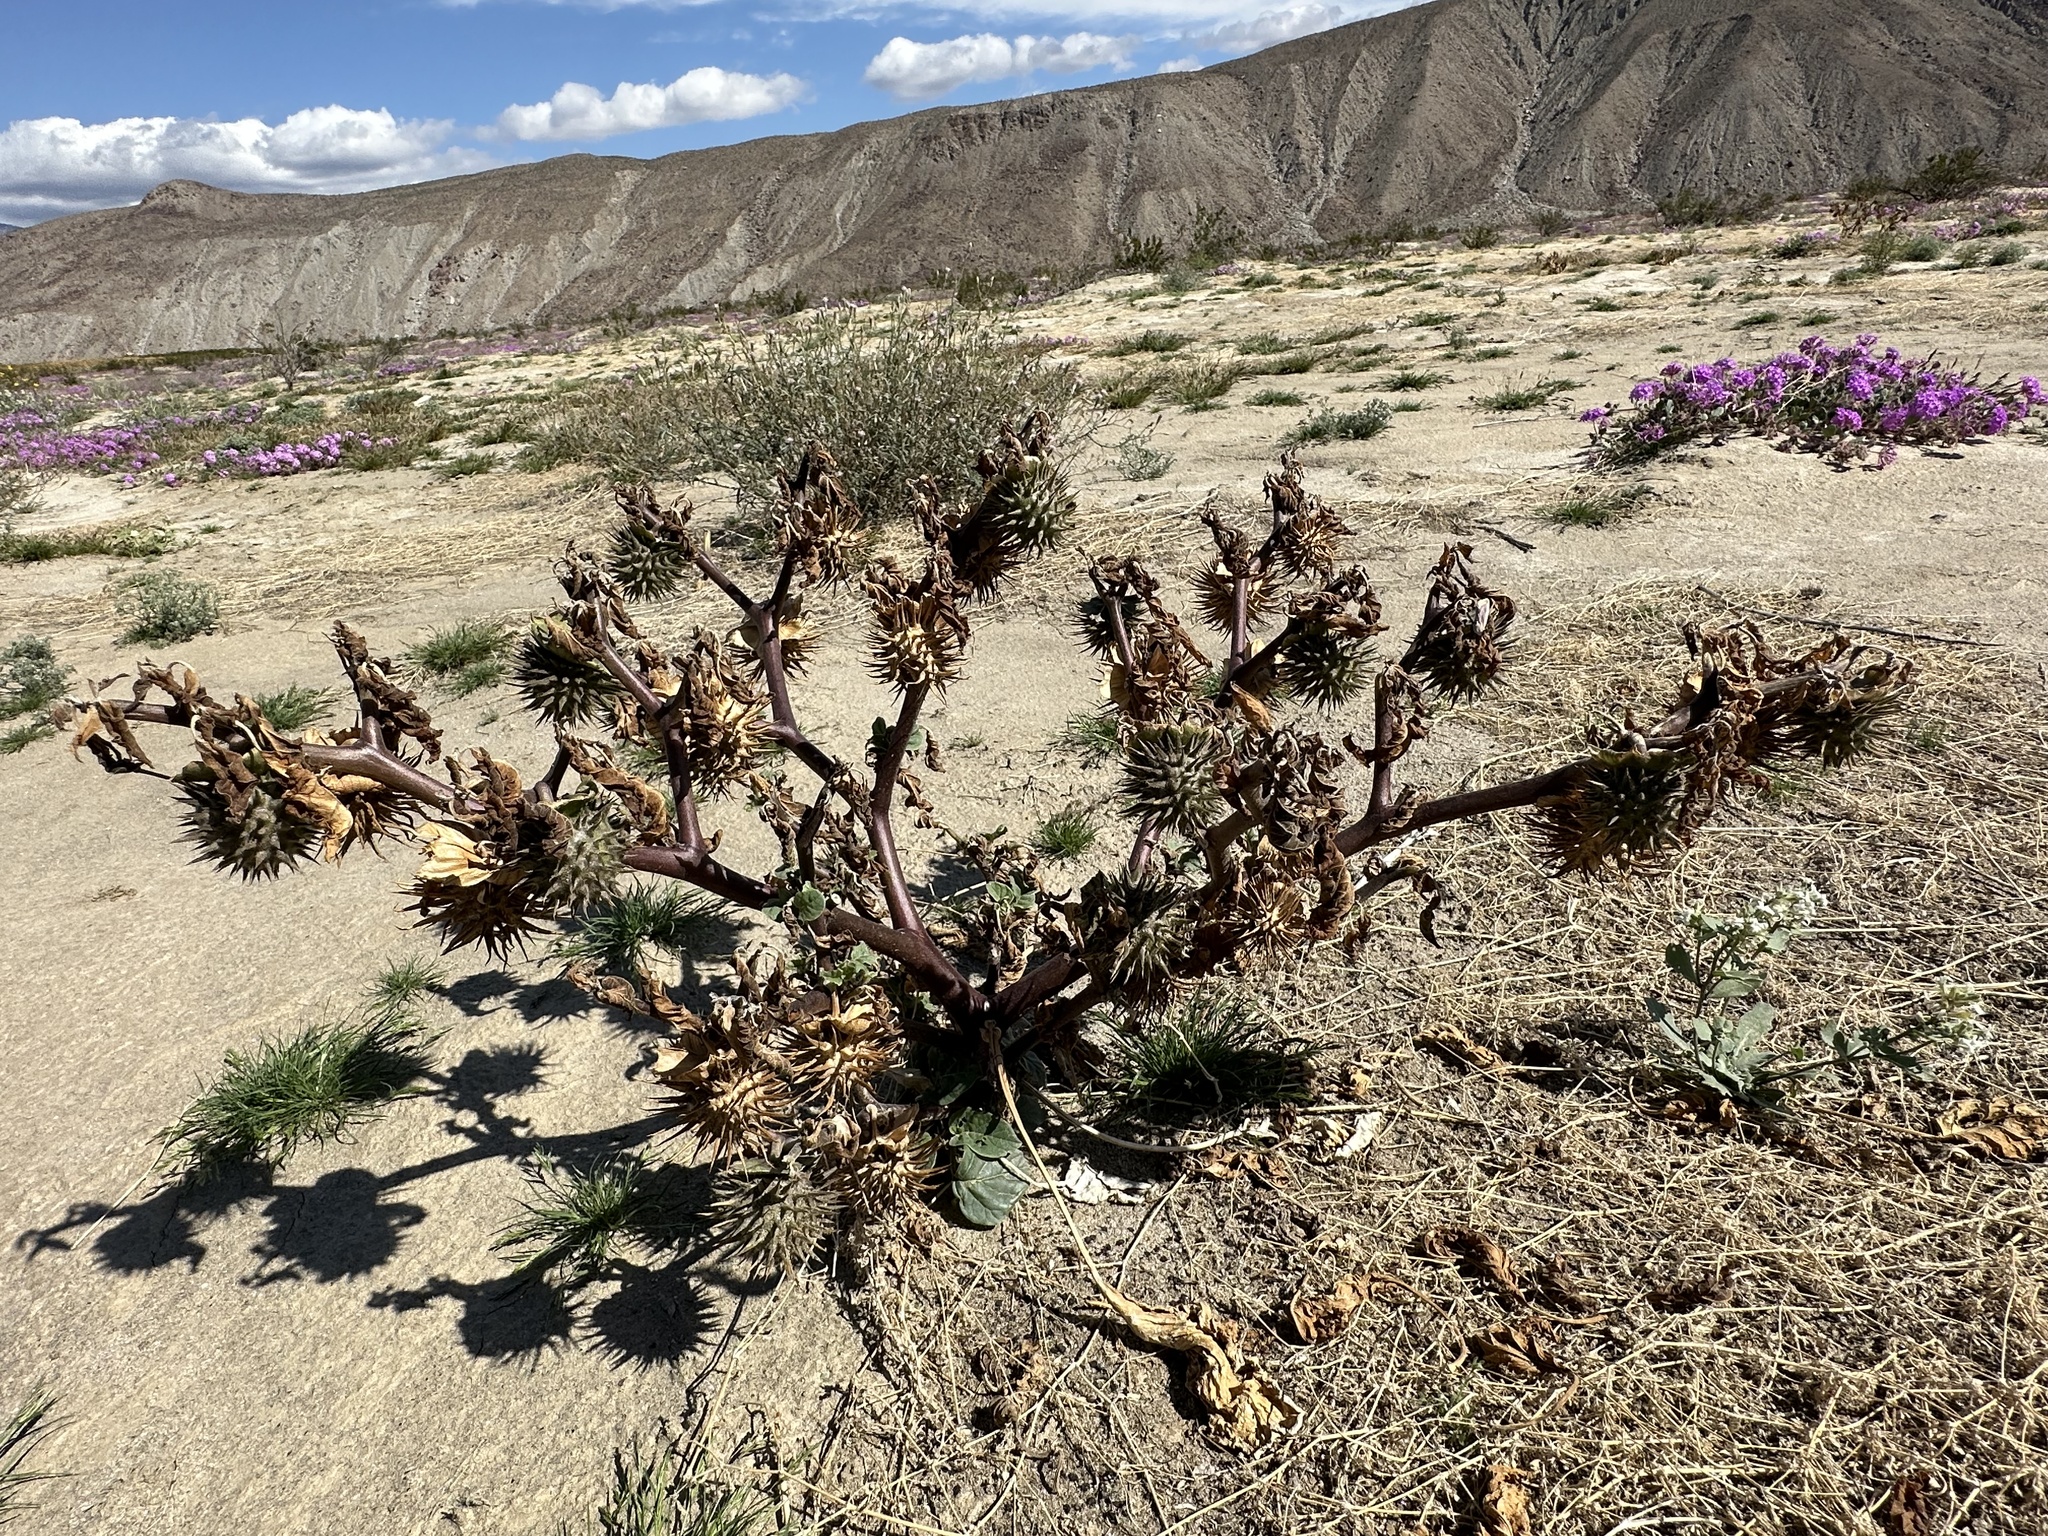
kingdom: Plantae
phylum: Tracheophyta
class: Magnoliopsida
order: Solanales
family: Solanaceae
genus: Datura
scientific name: Datura discolor
